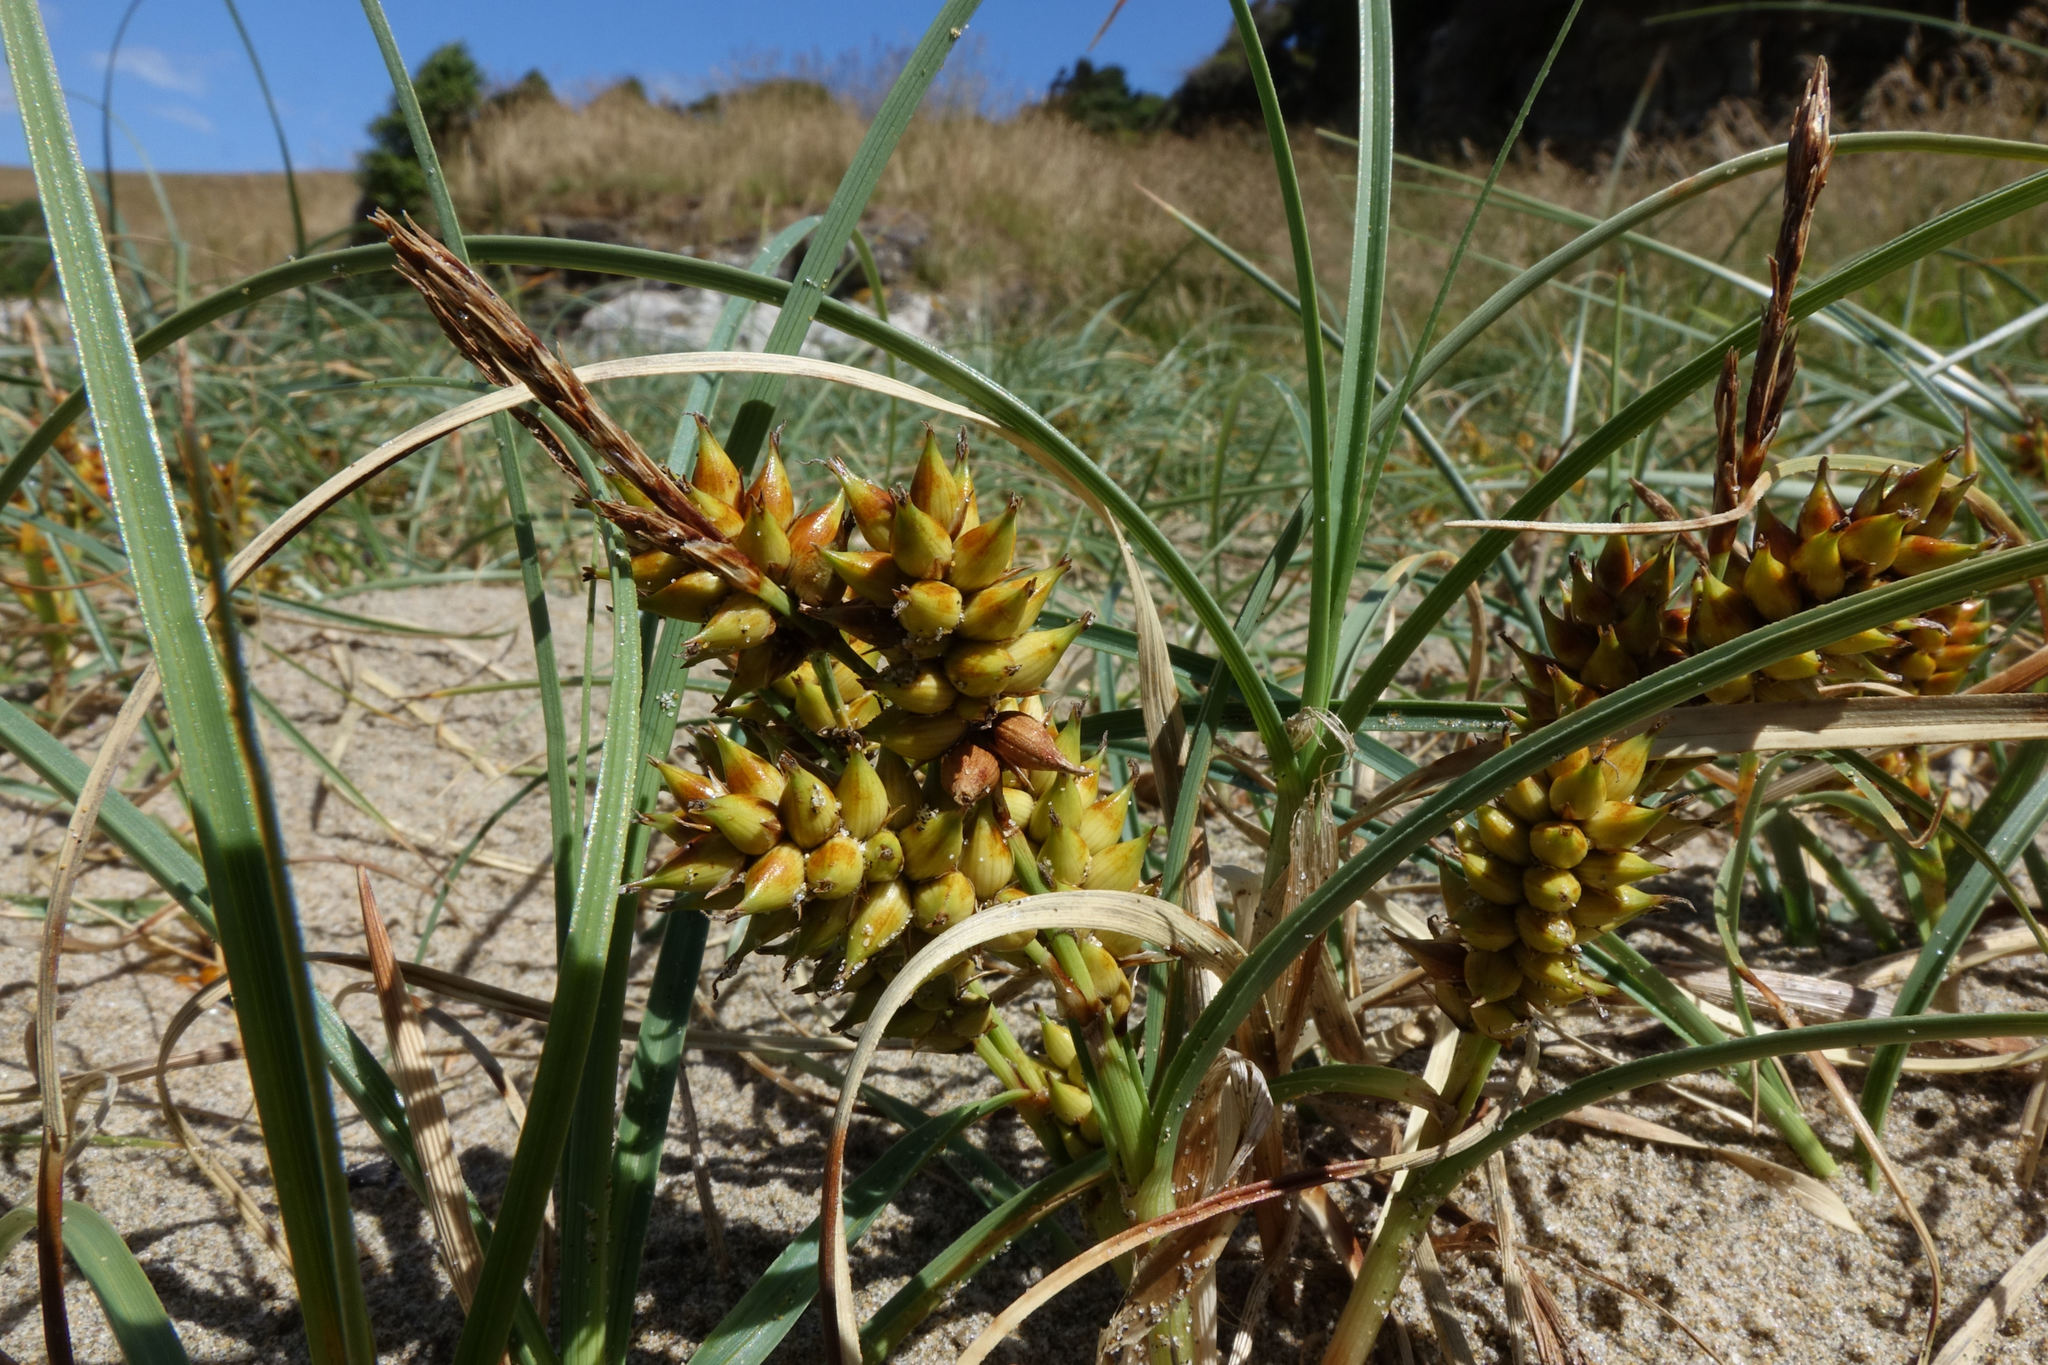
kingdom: Plantae
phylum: Tracheophyta
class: Liliopsida
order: Poales
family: Cyperaceae
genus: Carex
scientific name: Carex pumila
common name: Dwarf sedge
